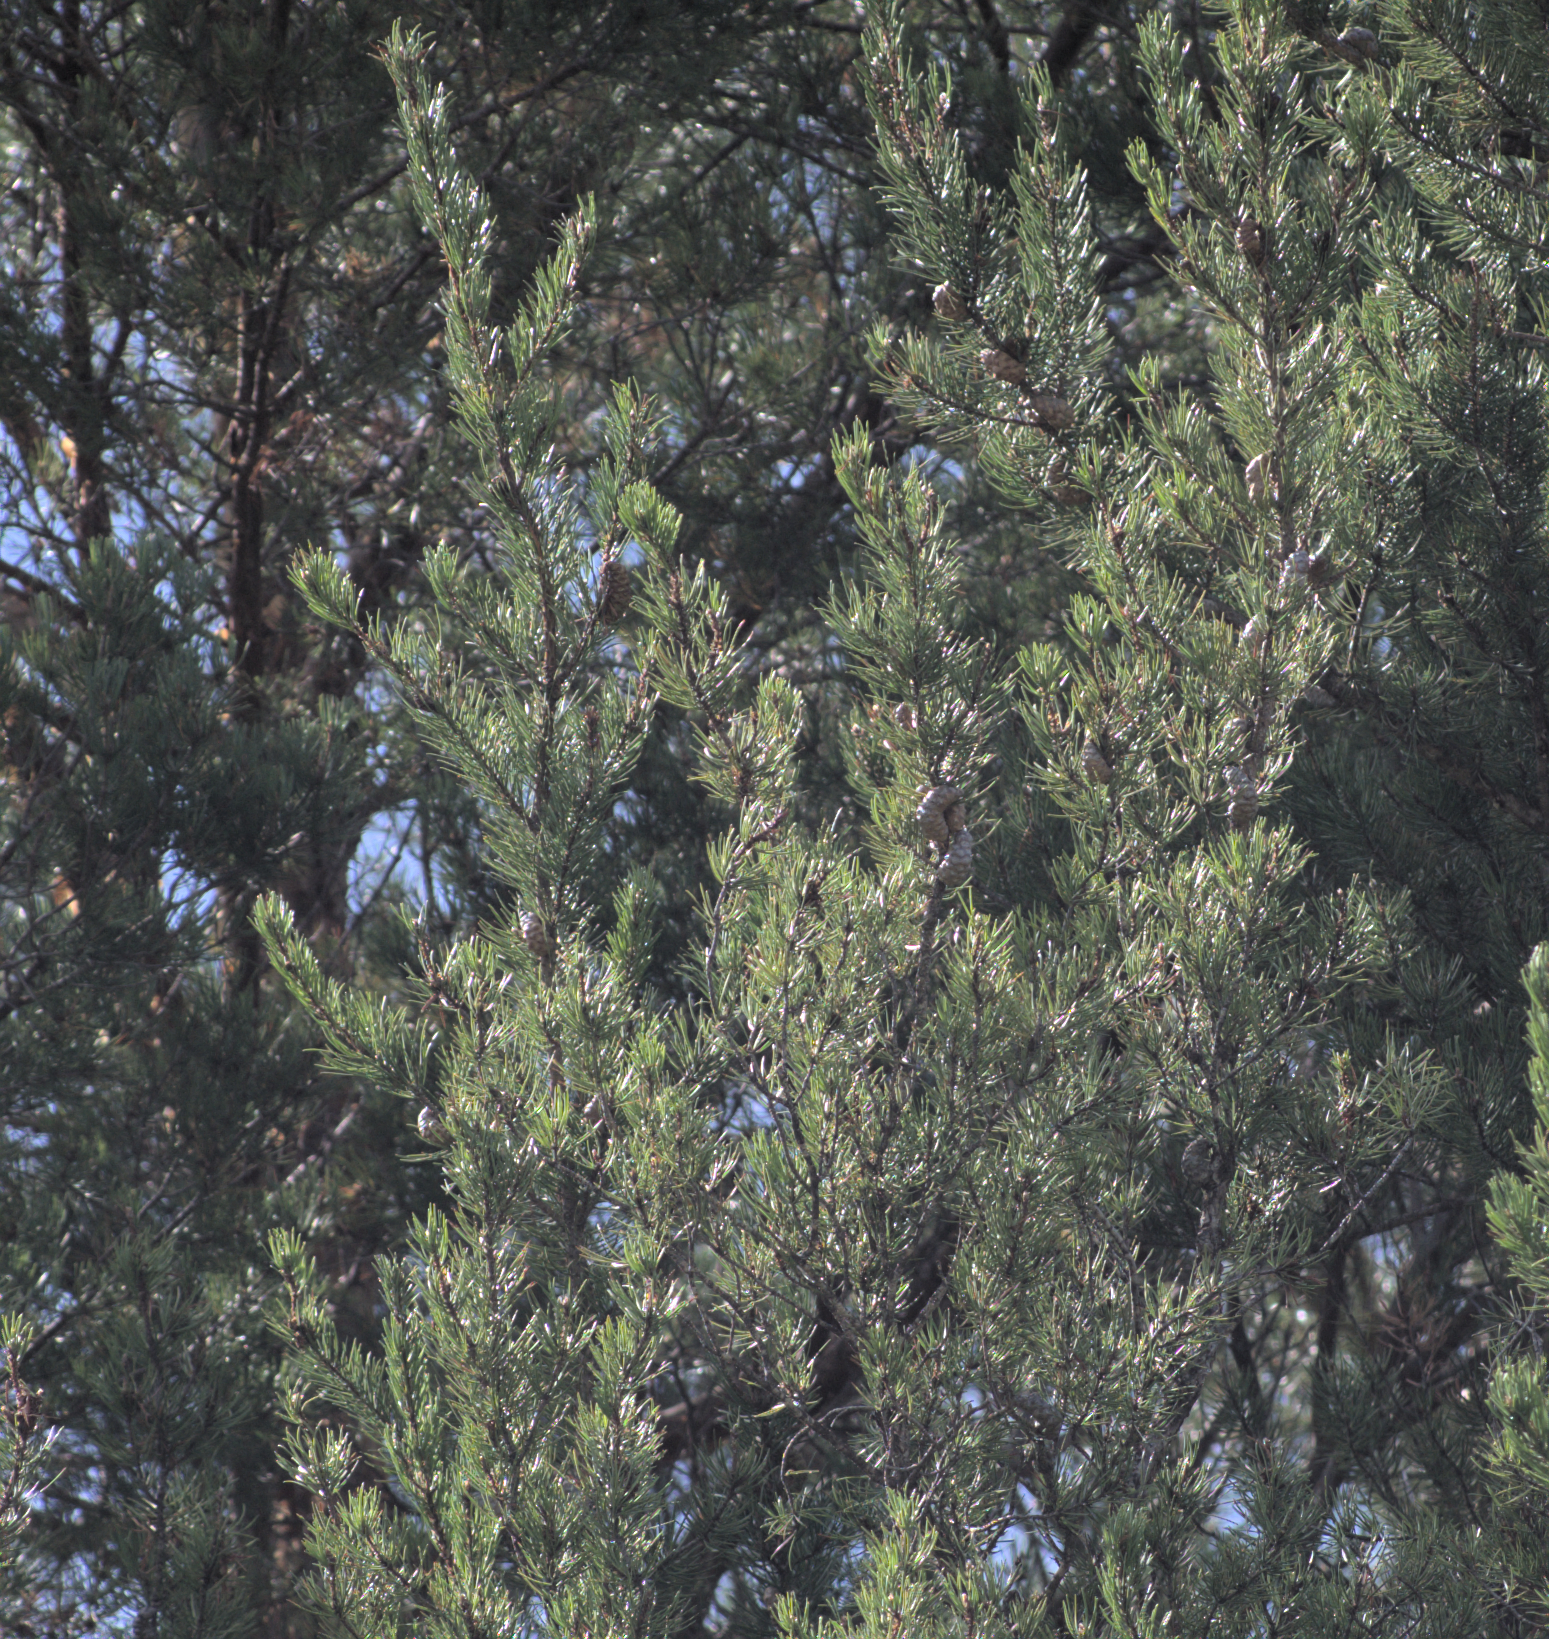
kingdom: Plantae
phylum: Tracheophyta
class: Pinopsida
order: Pinales
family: Pinaceae
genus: Pinus
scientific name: Pinus banksiana
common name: Jack pine
